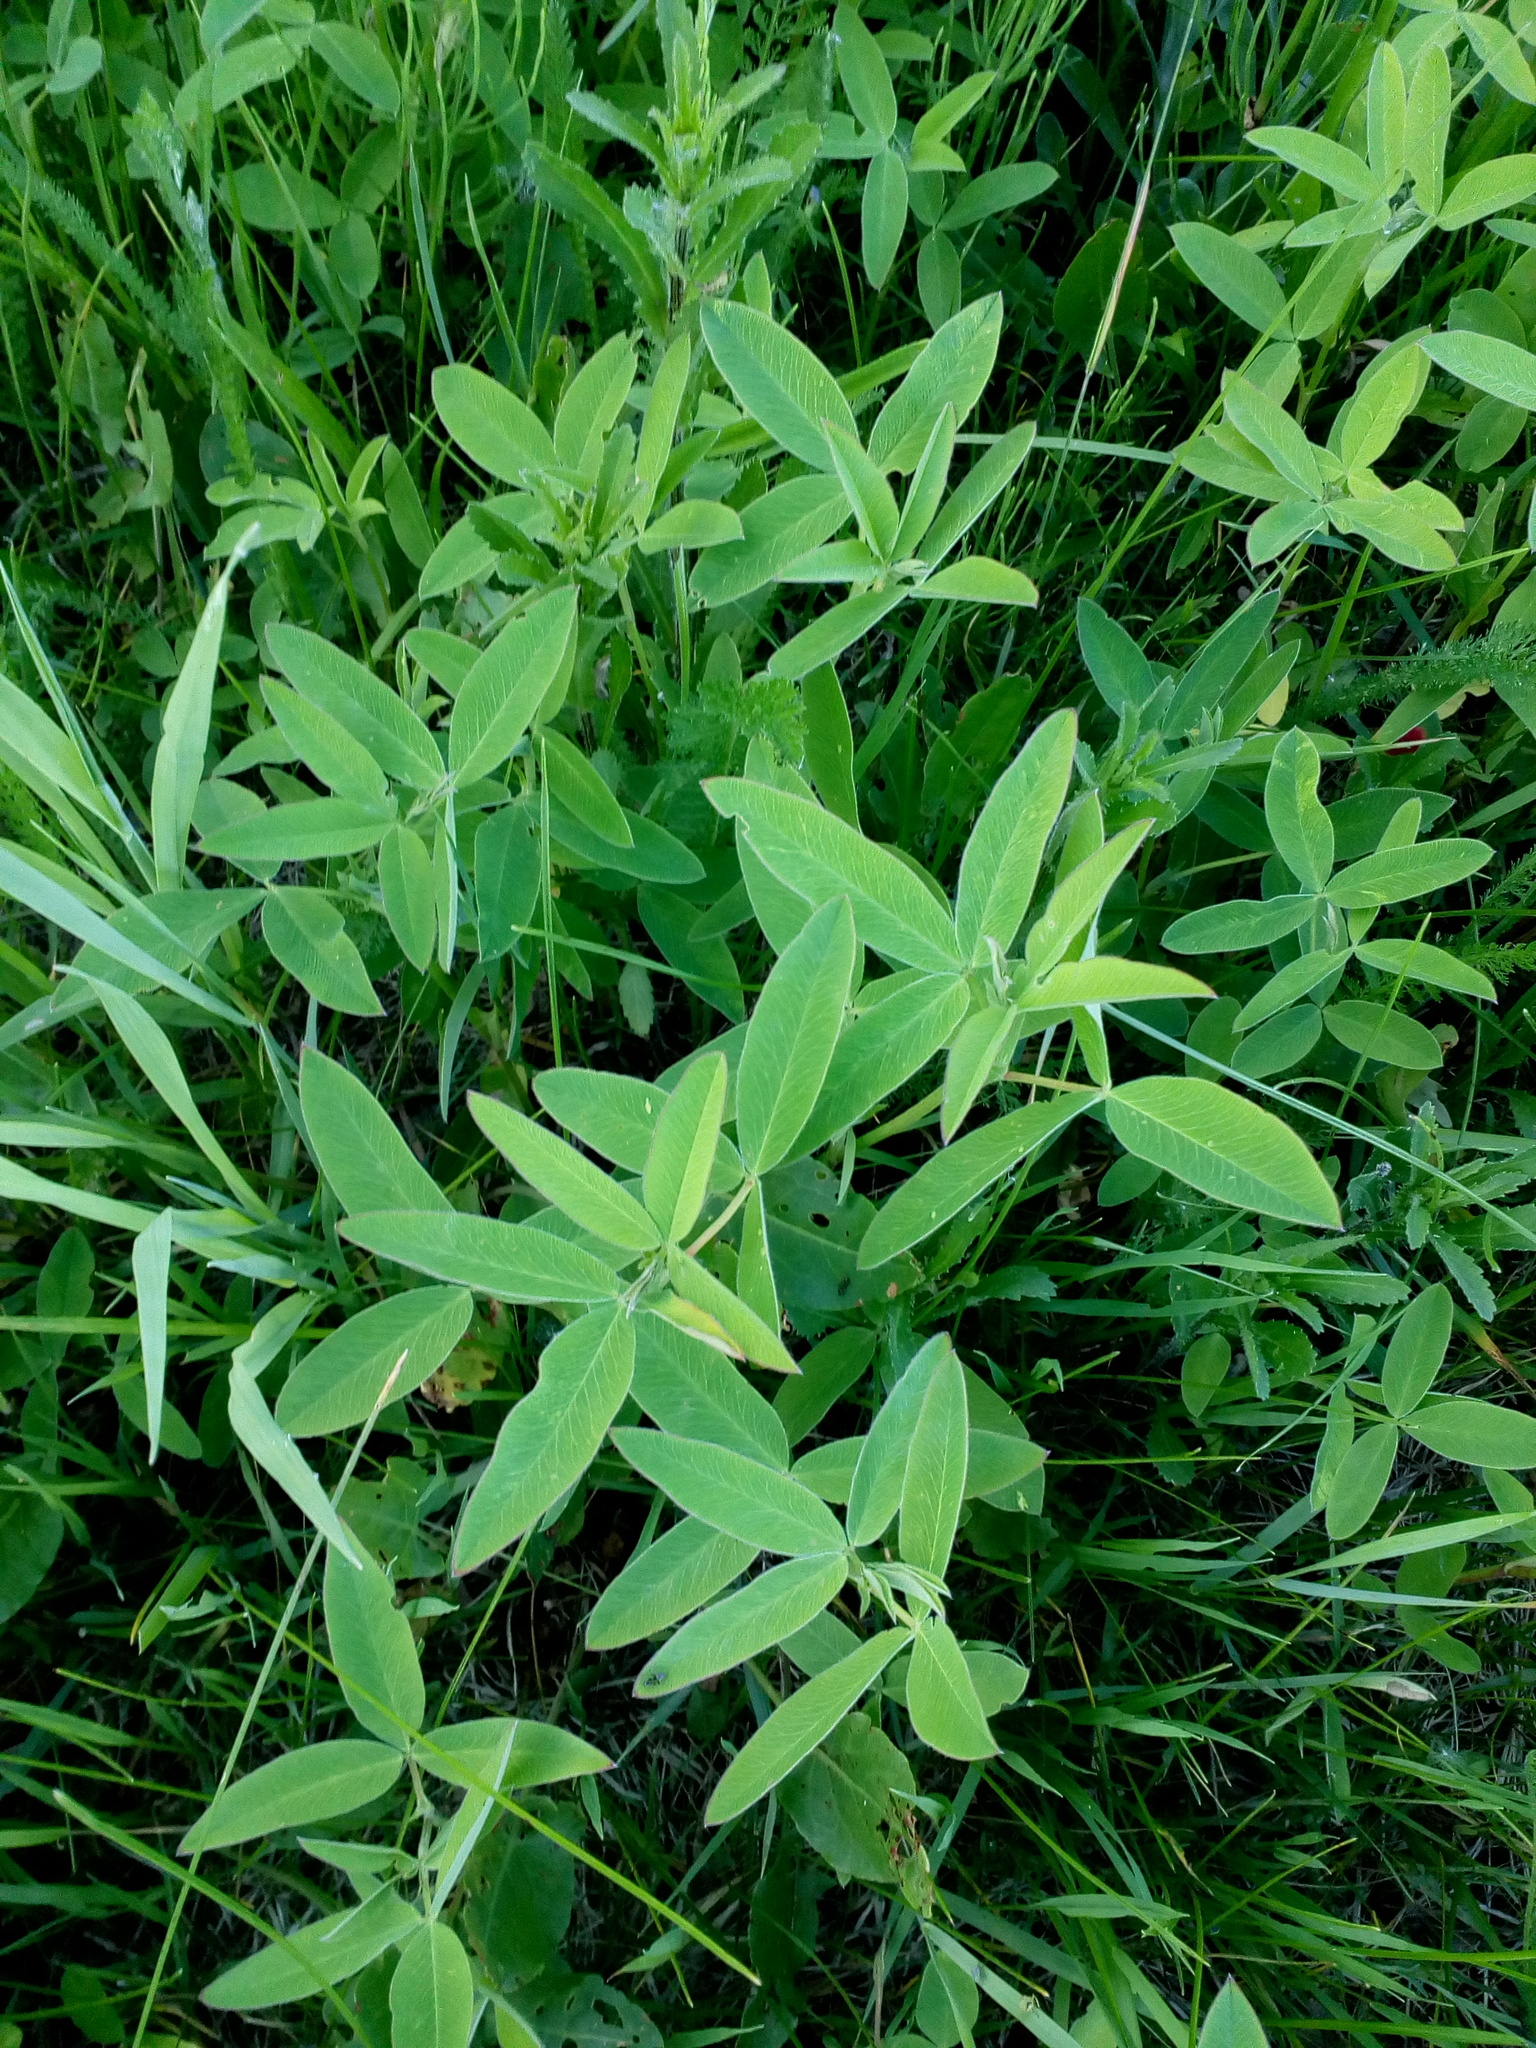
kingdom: Plantae
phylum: Tracheophyta
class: Magnoliopsida
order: Fabales
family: Fabaceae
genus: Trifolium
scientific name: Trifolium medium
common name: Zigzag clover
